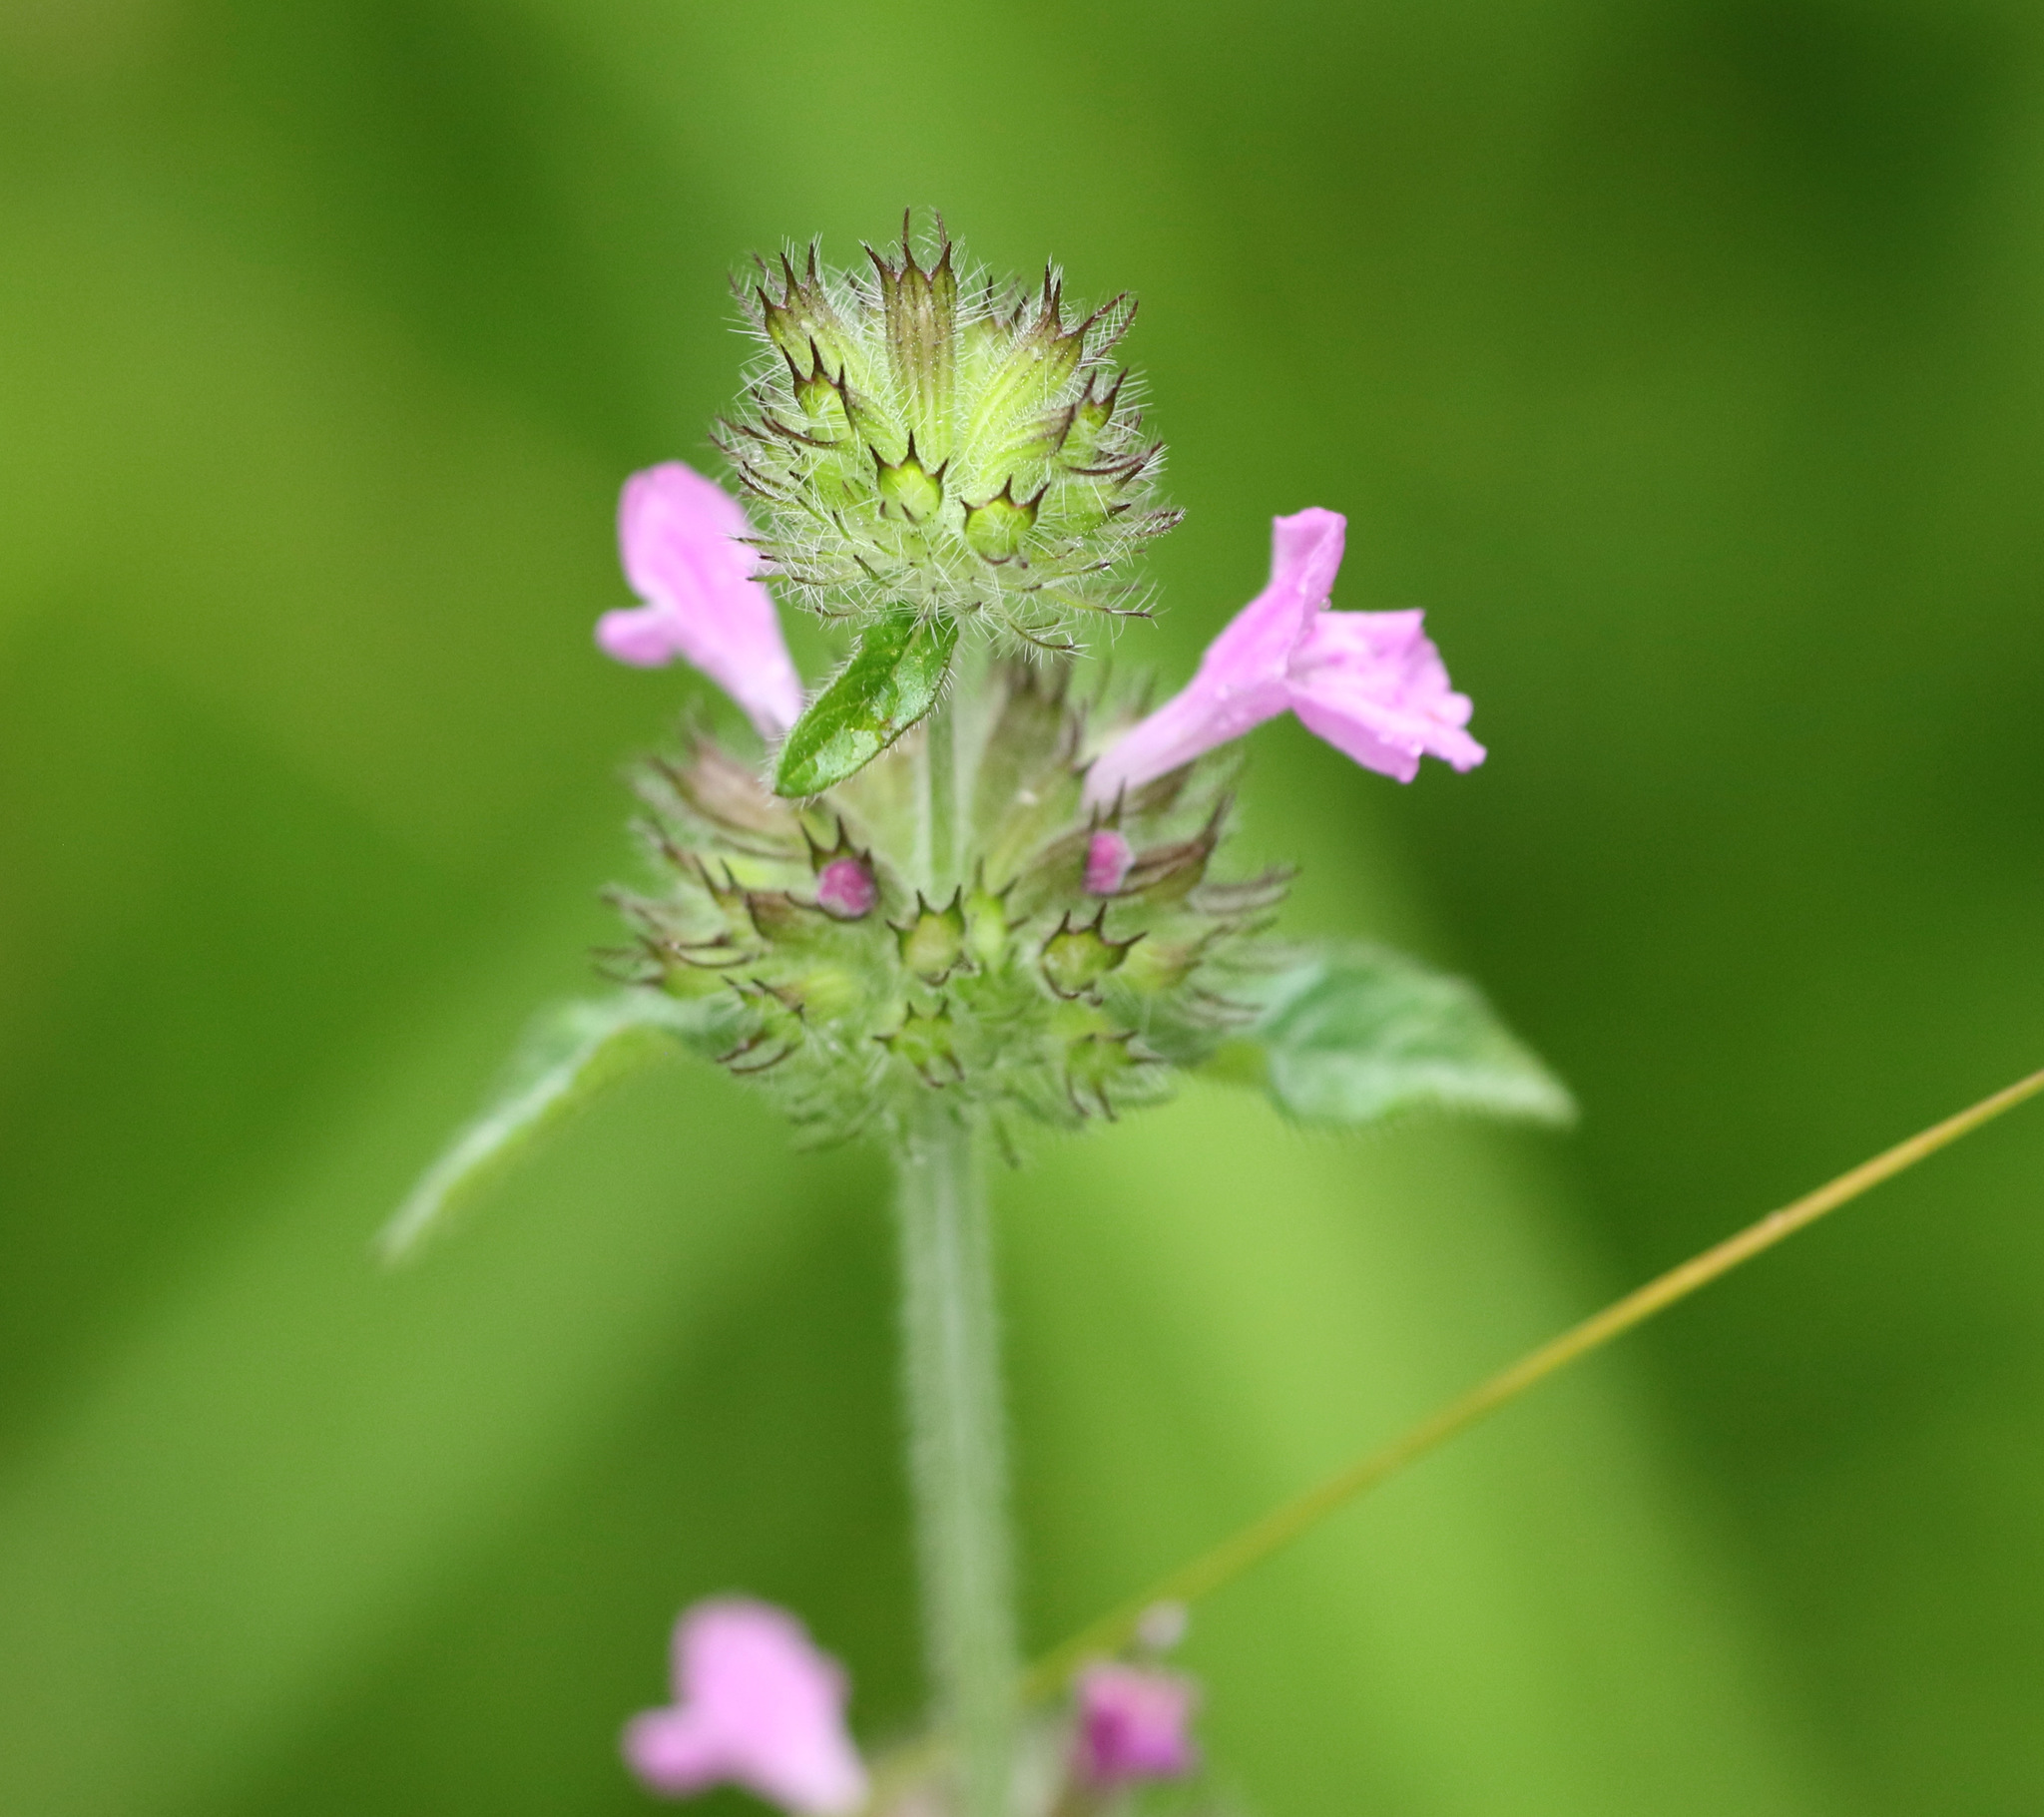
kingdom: Plantae
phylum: Tracheophyta
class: Magnoliopsida
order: Lamiales
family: Lamiaceae
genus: Clinopodium
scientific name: Clinopodium vulgare
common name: Wild basil
